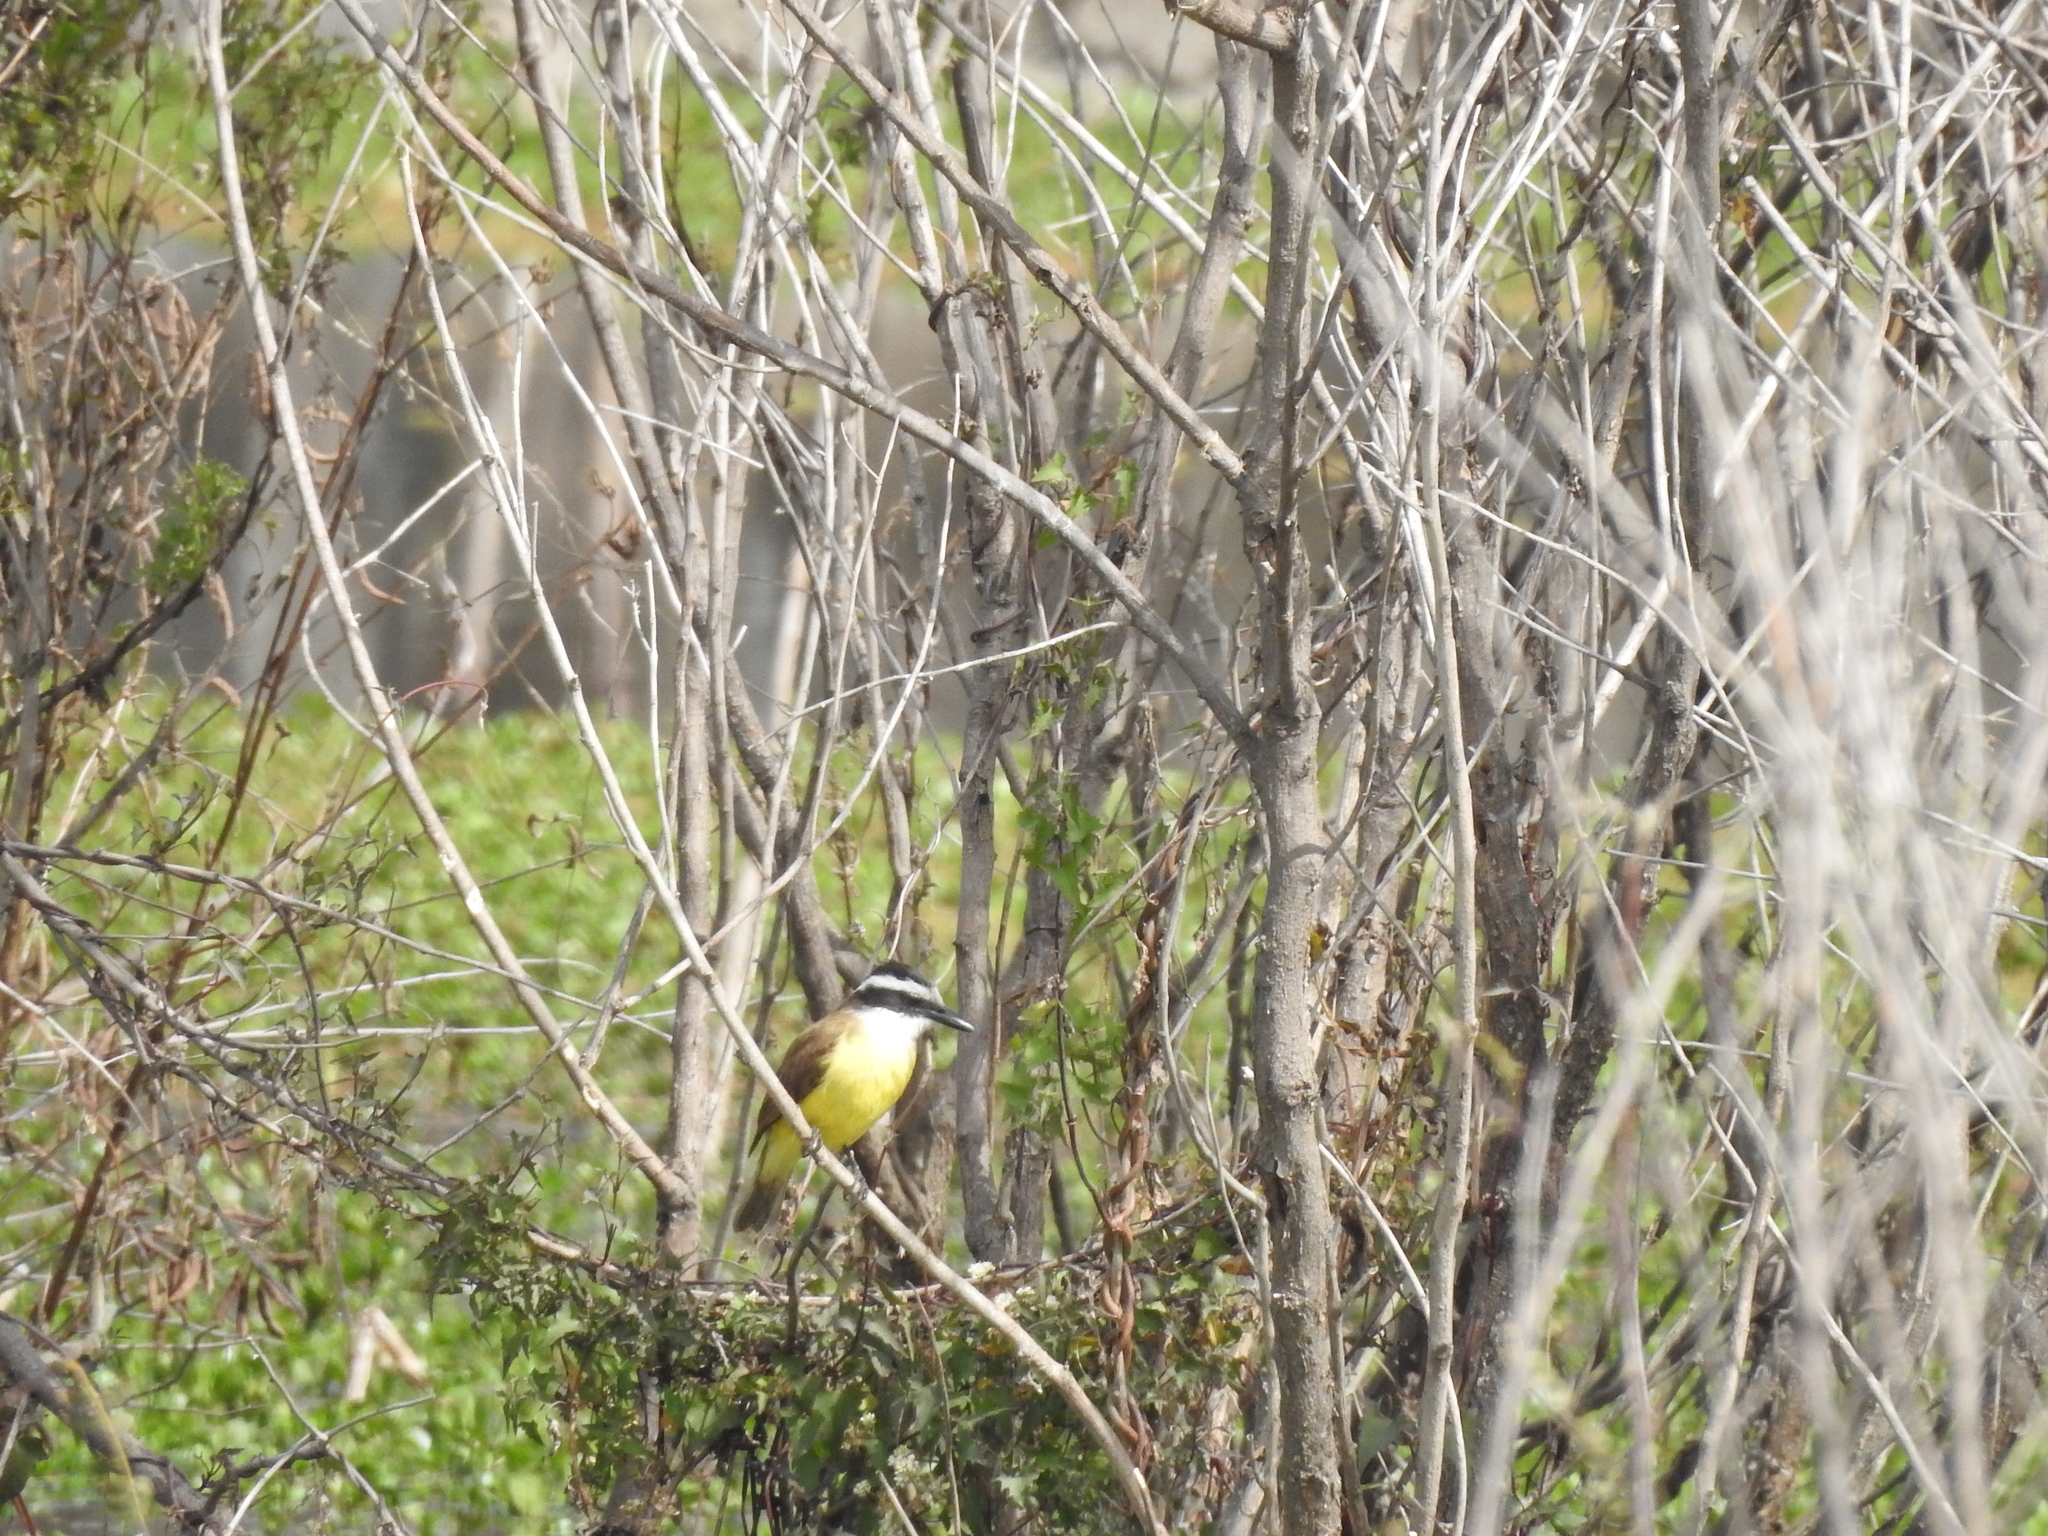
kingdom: Animalia
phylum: Chordata
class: Aves
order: Passeriformes
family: Tyrannidae
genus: Pitangus
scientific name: Pitangus sulphuratus
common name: Great kiskadee
